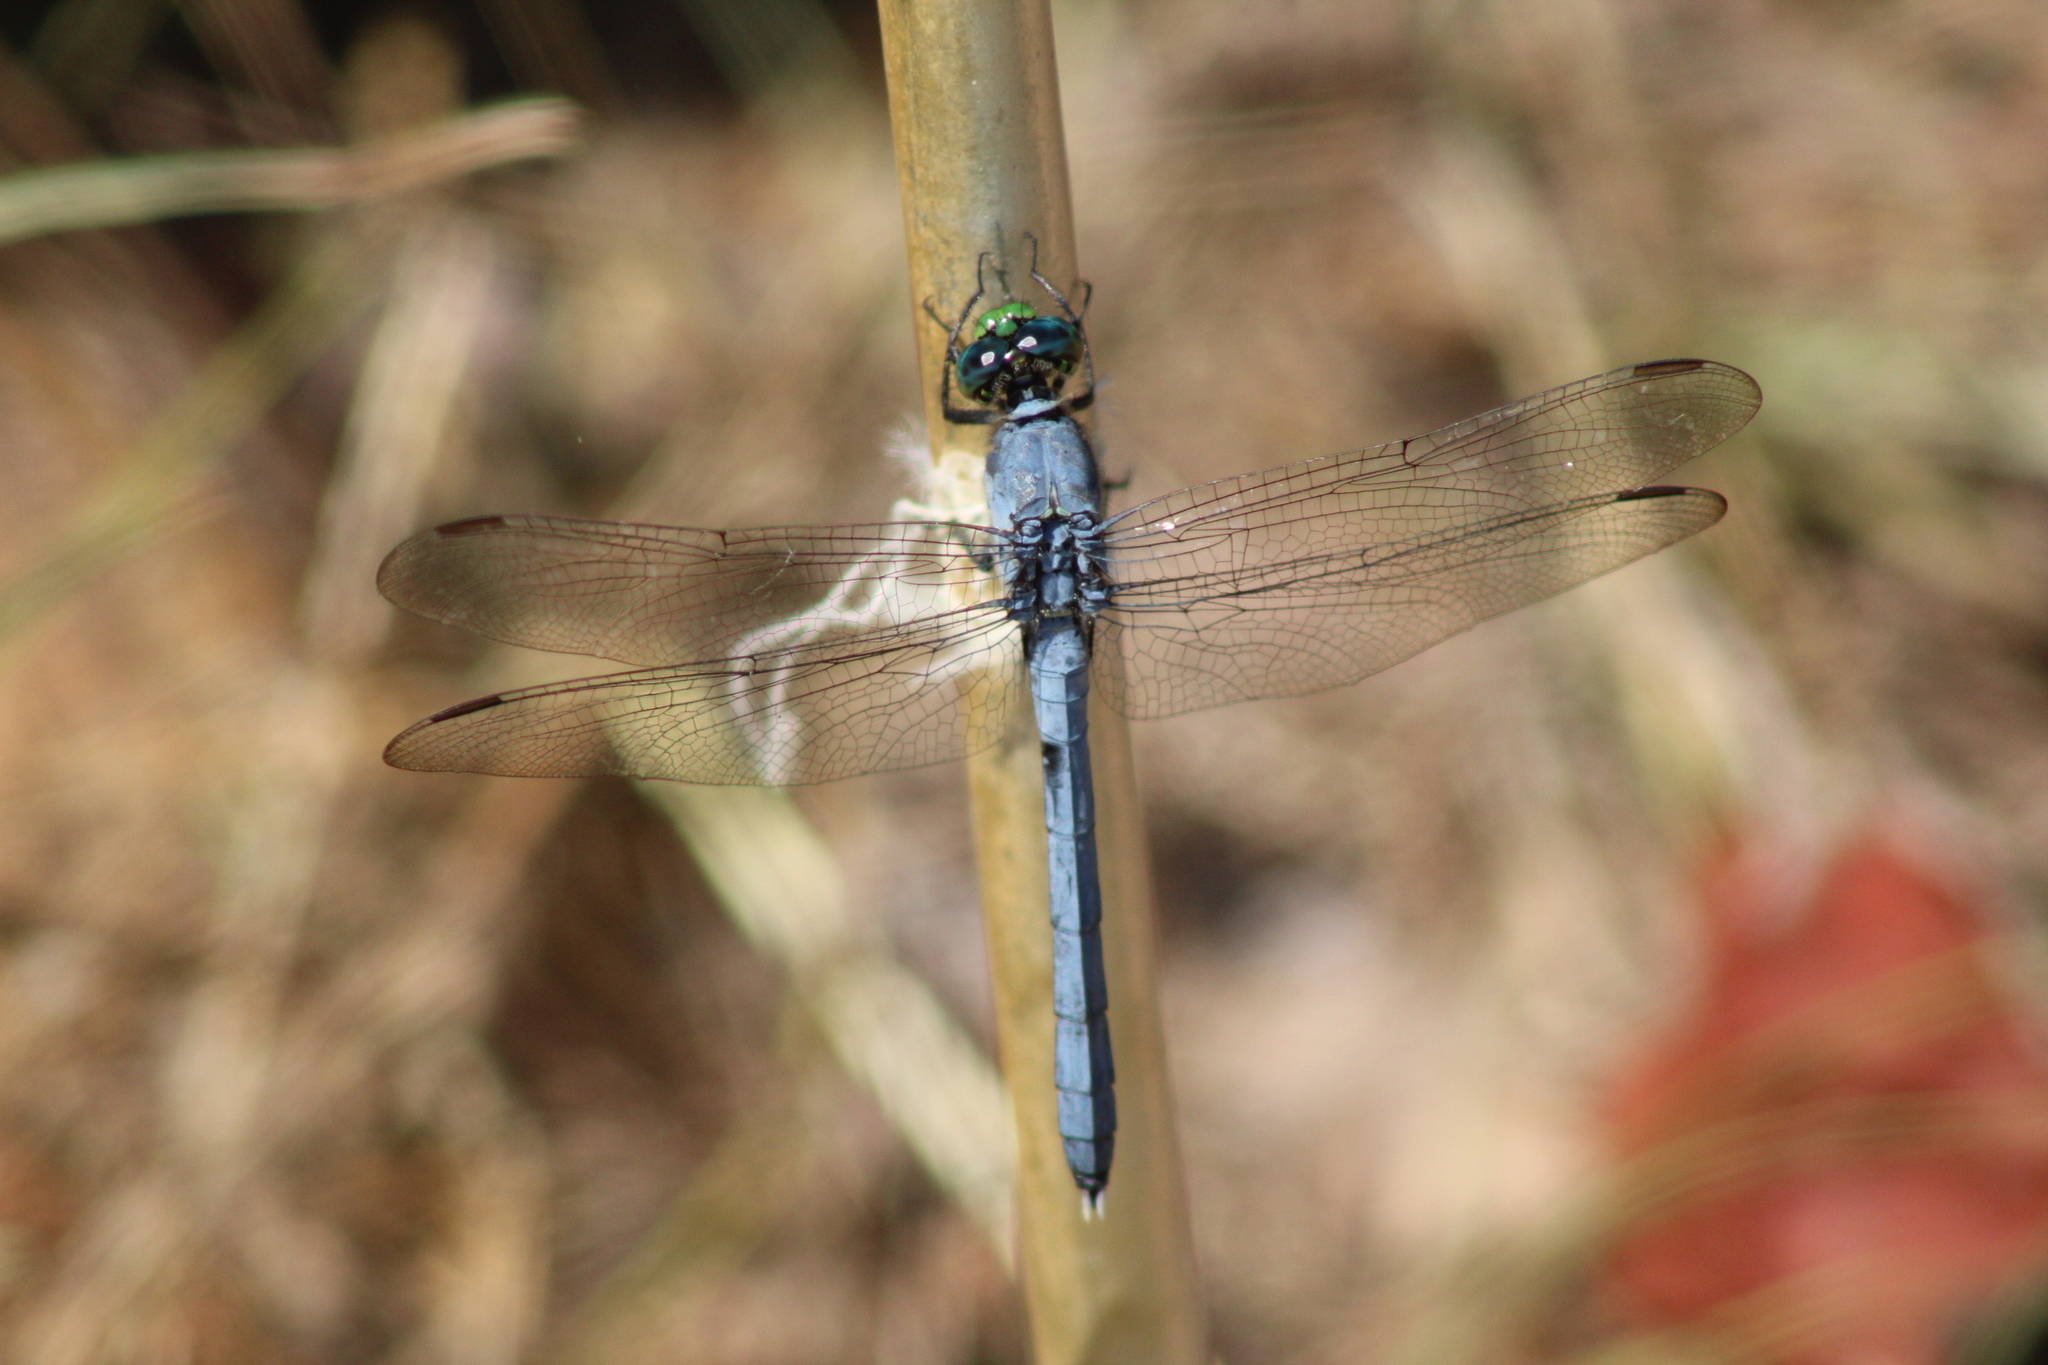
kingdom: Animalia
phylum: Arthropoda
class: Insecta
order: Odonata
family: Libellulidae
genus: Erythemis
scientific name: Erythemis simplicicollis
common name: Eastern pondhawk
